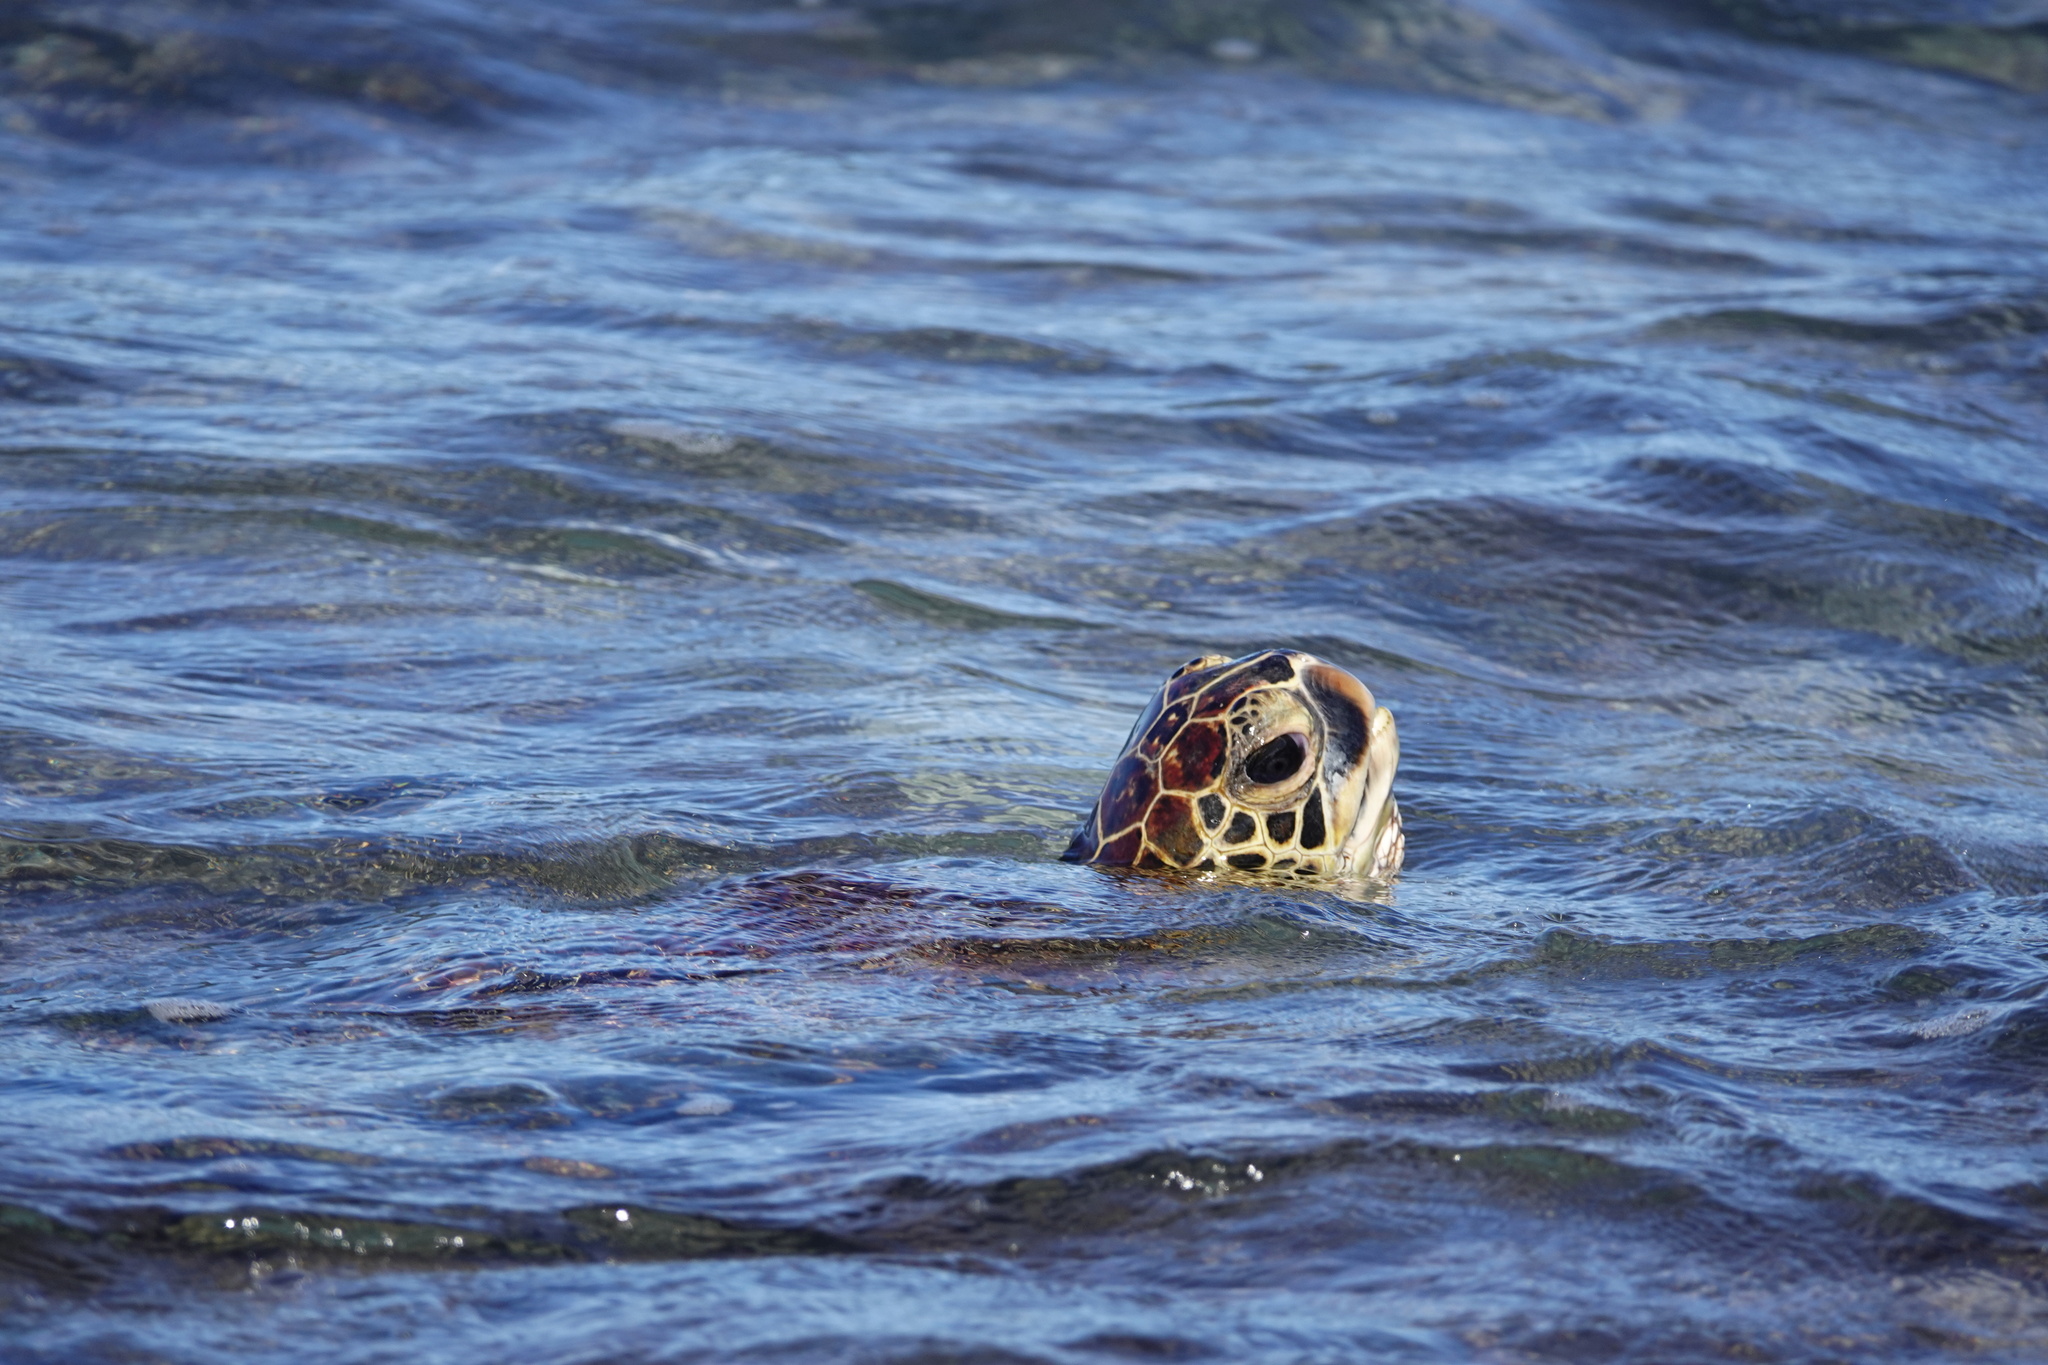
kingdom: Animalia
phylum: Chordata
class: Testudines
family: Cheloniidae
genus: Chelonia
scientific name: Chelonia mydas
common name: Green turtle
